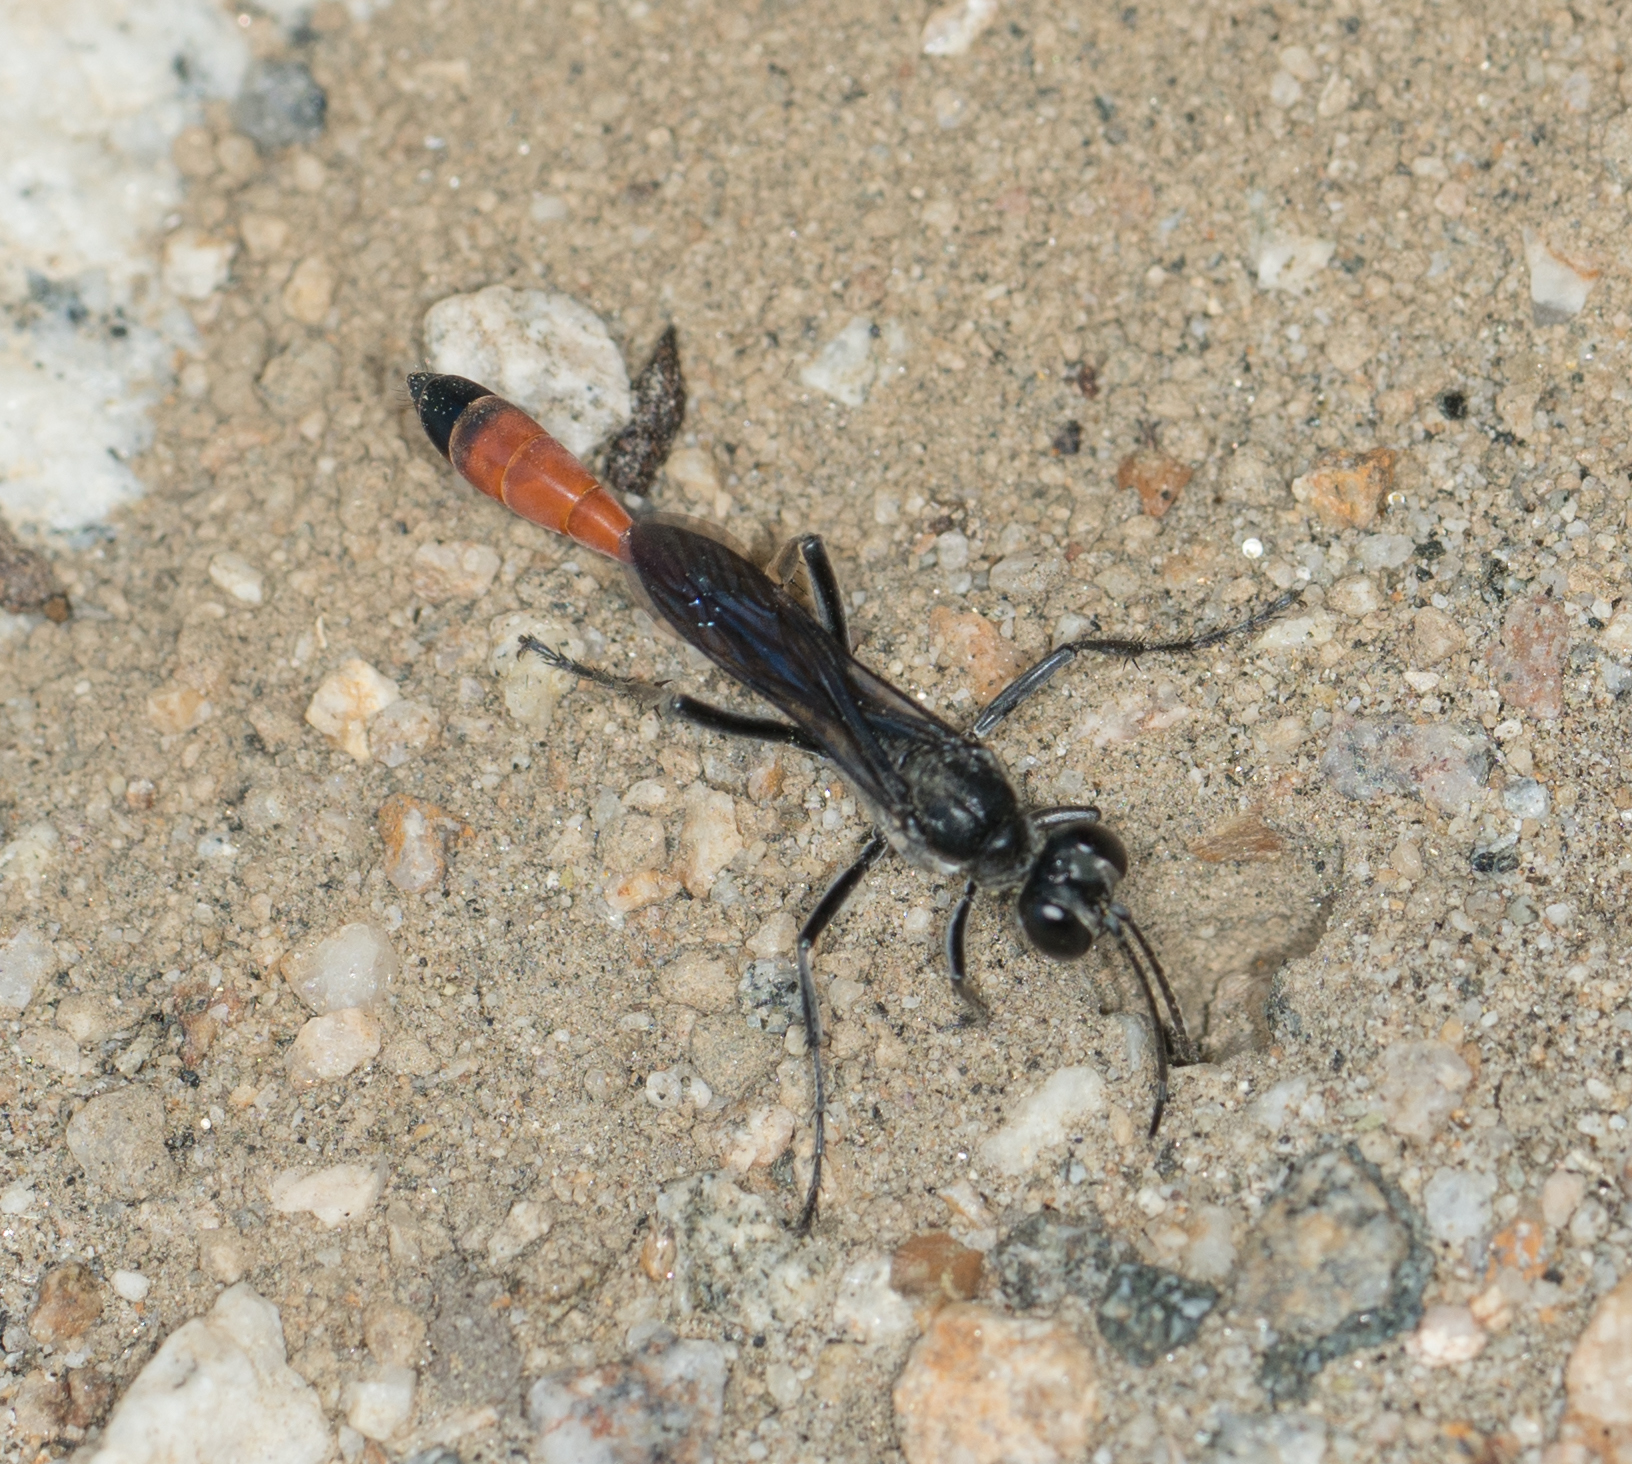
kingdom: Animalia
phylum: Arthropoda
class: Insecta
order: Hymenoptera
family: Sphecidae
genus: Ammophila
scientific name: Ammophila
